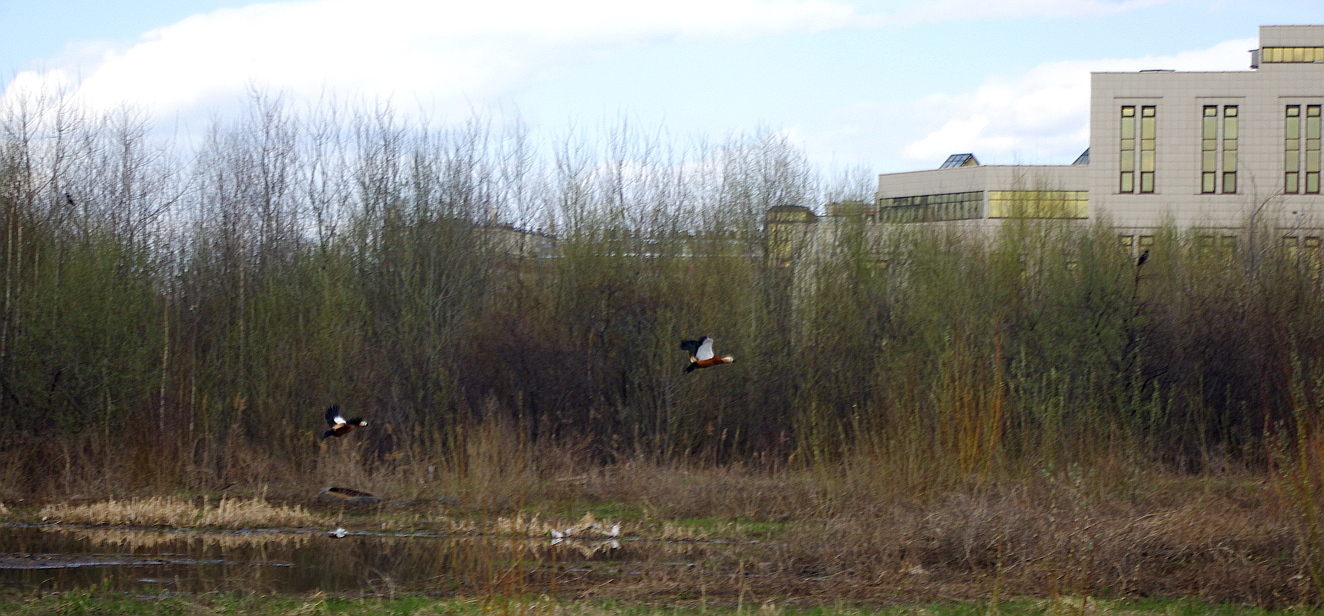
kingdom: Animalia
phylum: Chordata
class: Aves
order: Anseriformes
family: Anatidae
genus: Tadorna
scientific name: Tadorna ferruginea
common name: Ruddy shelduck
